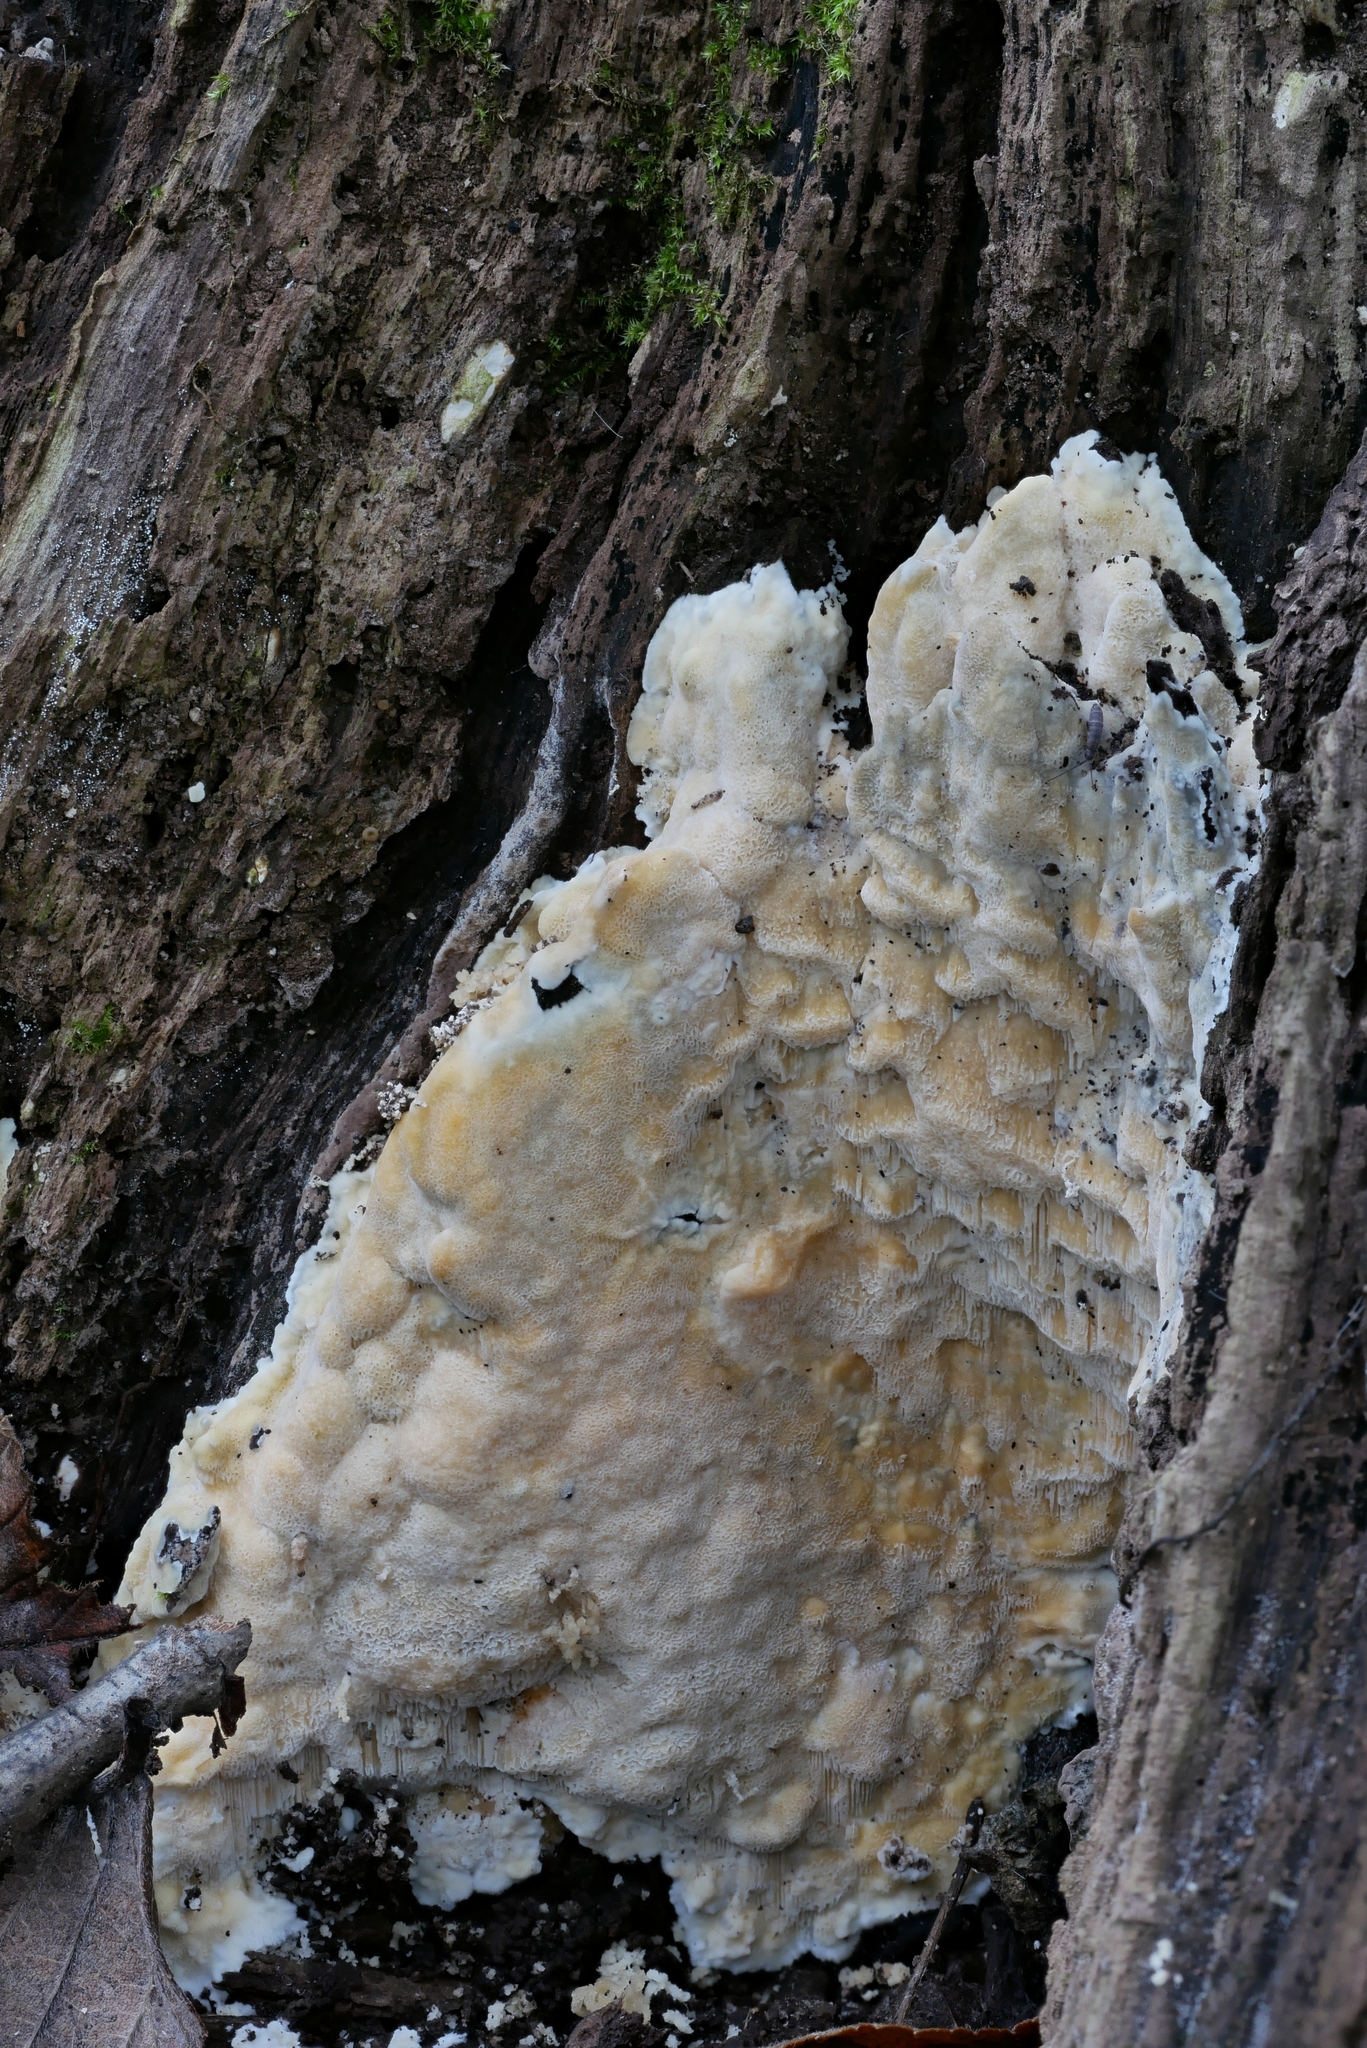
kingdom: Fungi
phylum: Basidiomycota
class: Agaricomycetes
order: Polyporales
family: Meruliaceae
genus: Physisporinus
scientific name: Physisporinus vitreus
